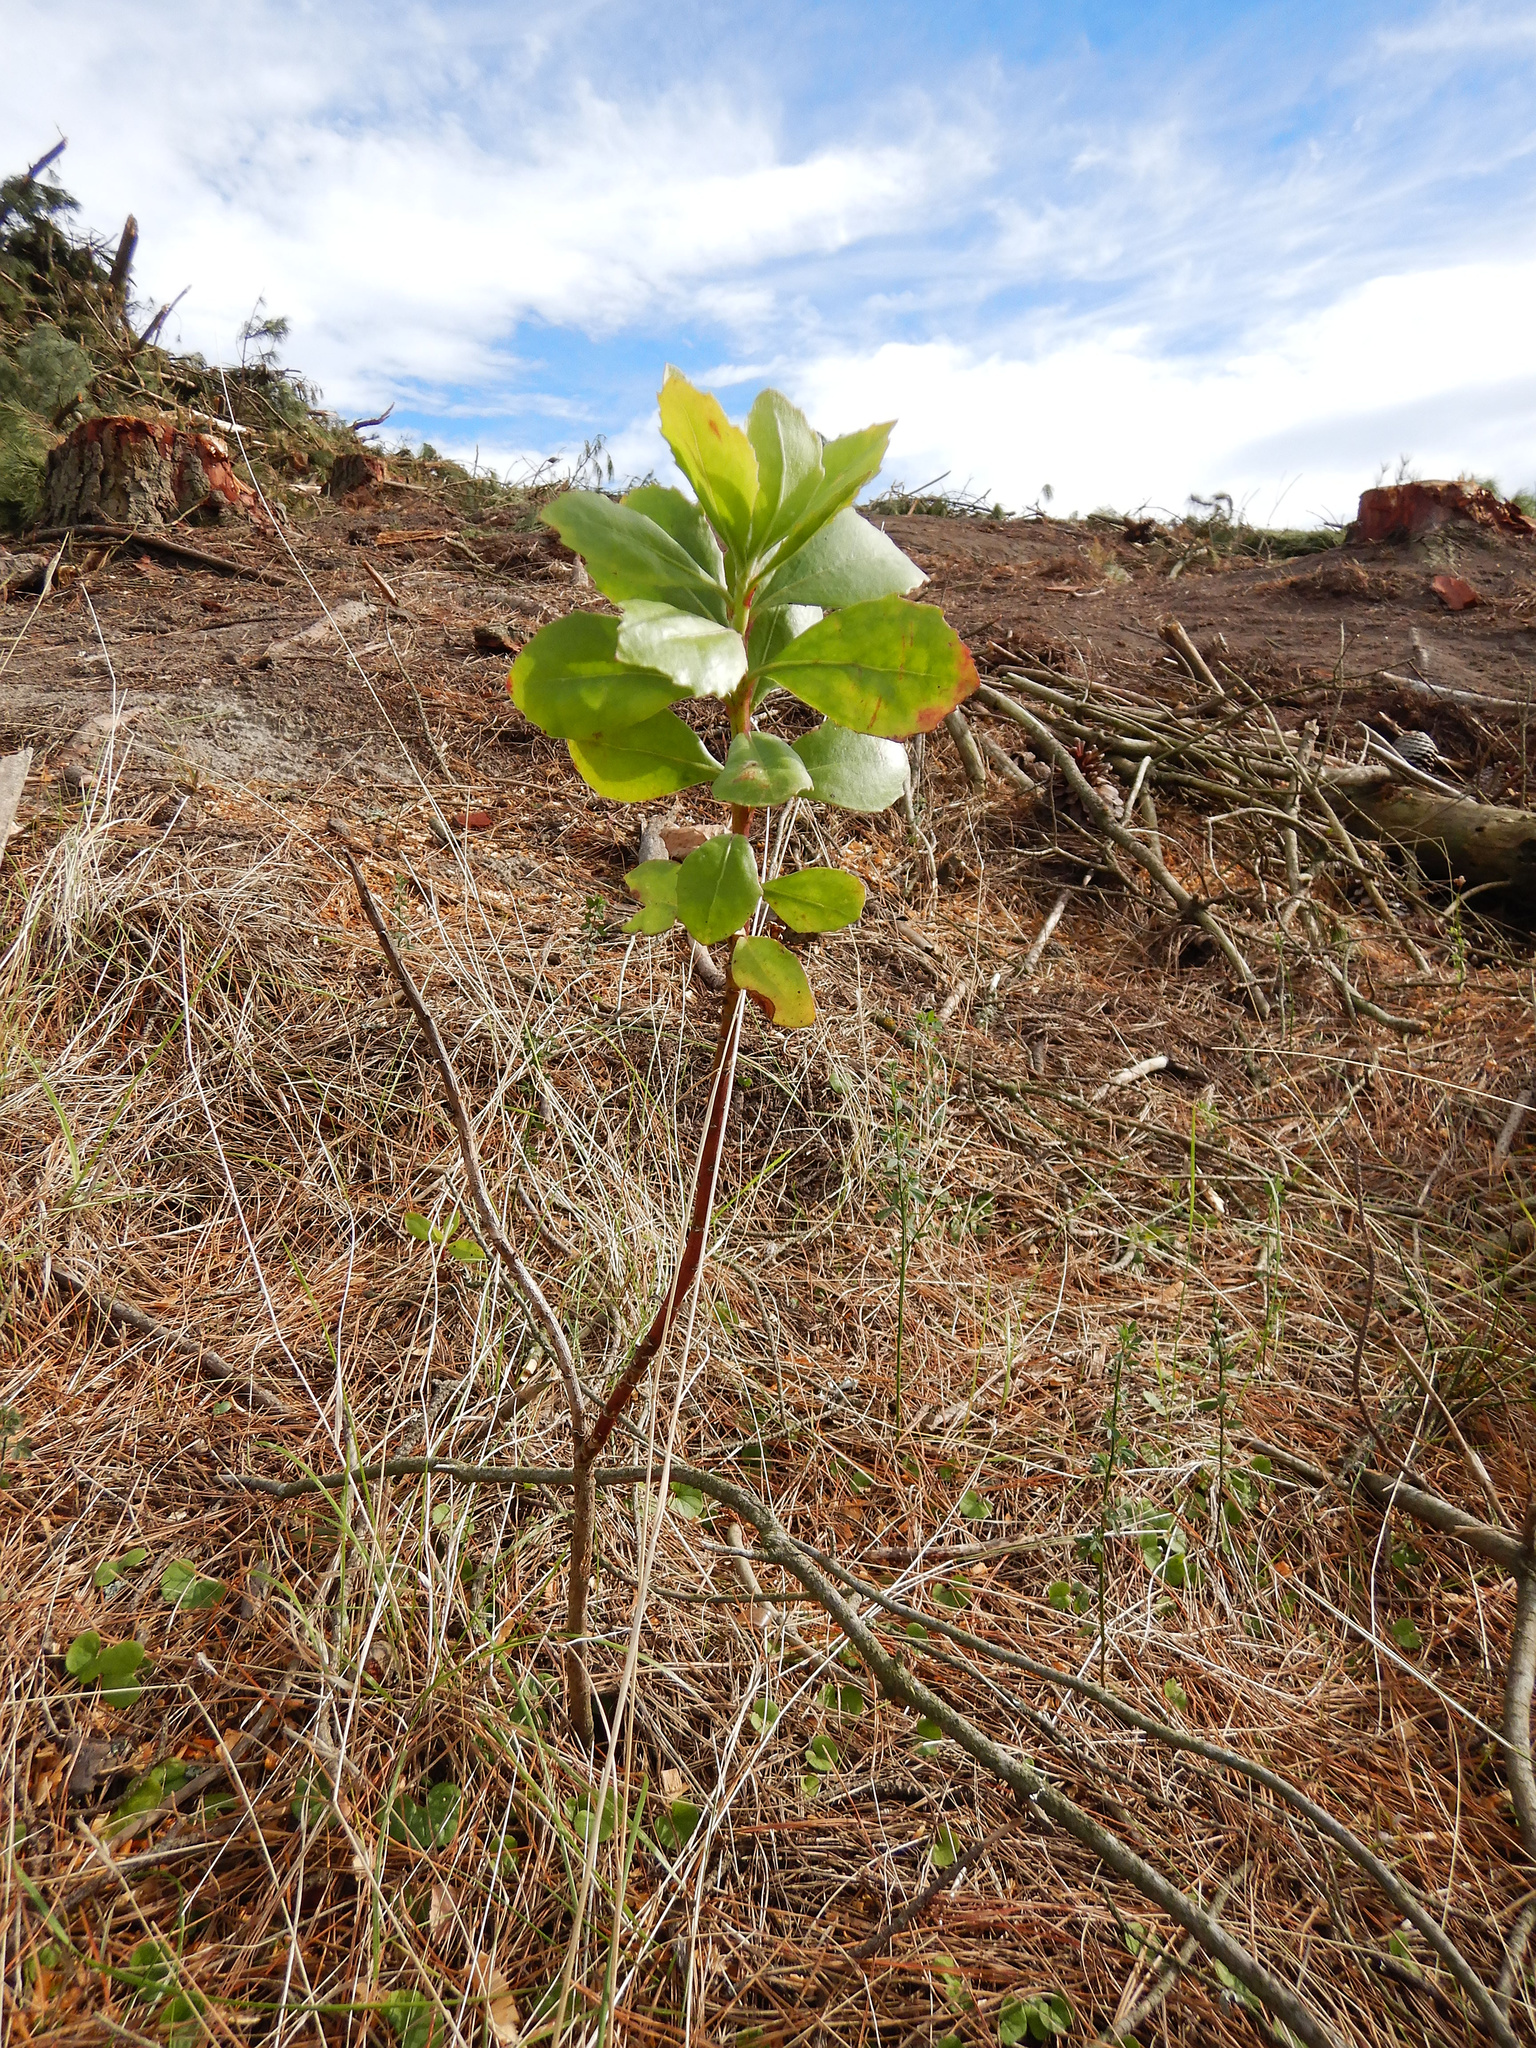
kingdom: Plantae
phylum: Tracheophyta
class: Magnoliopsida
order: Asterales
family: Asteraceae
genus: Osteospermum
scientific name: Osteospermum moniliferum
